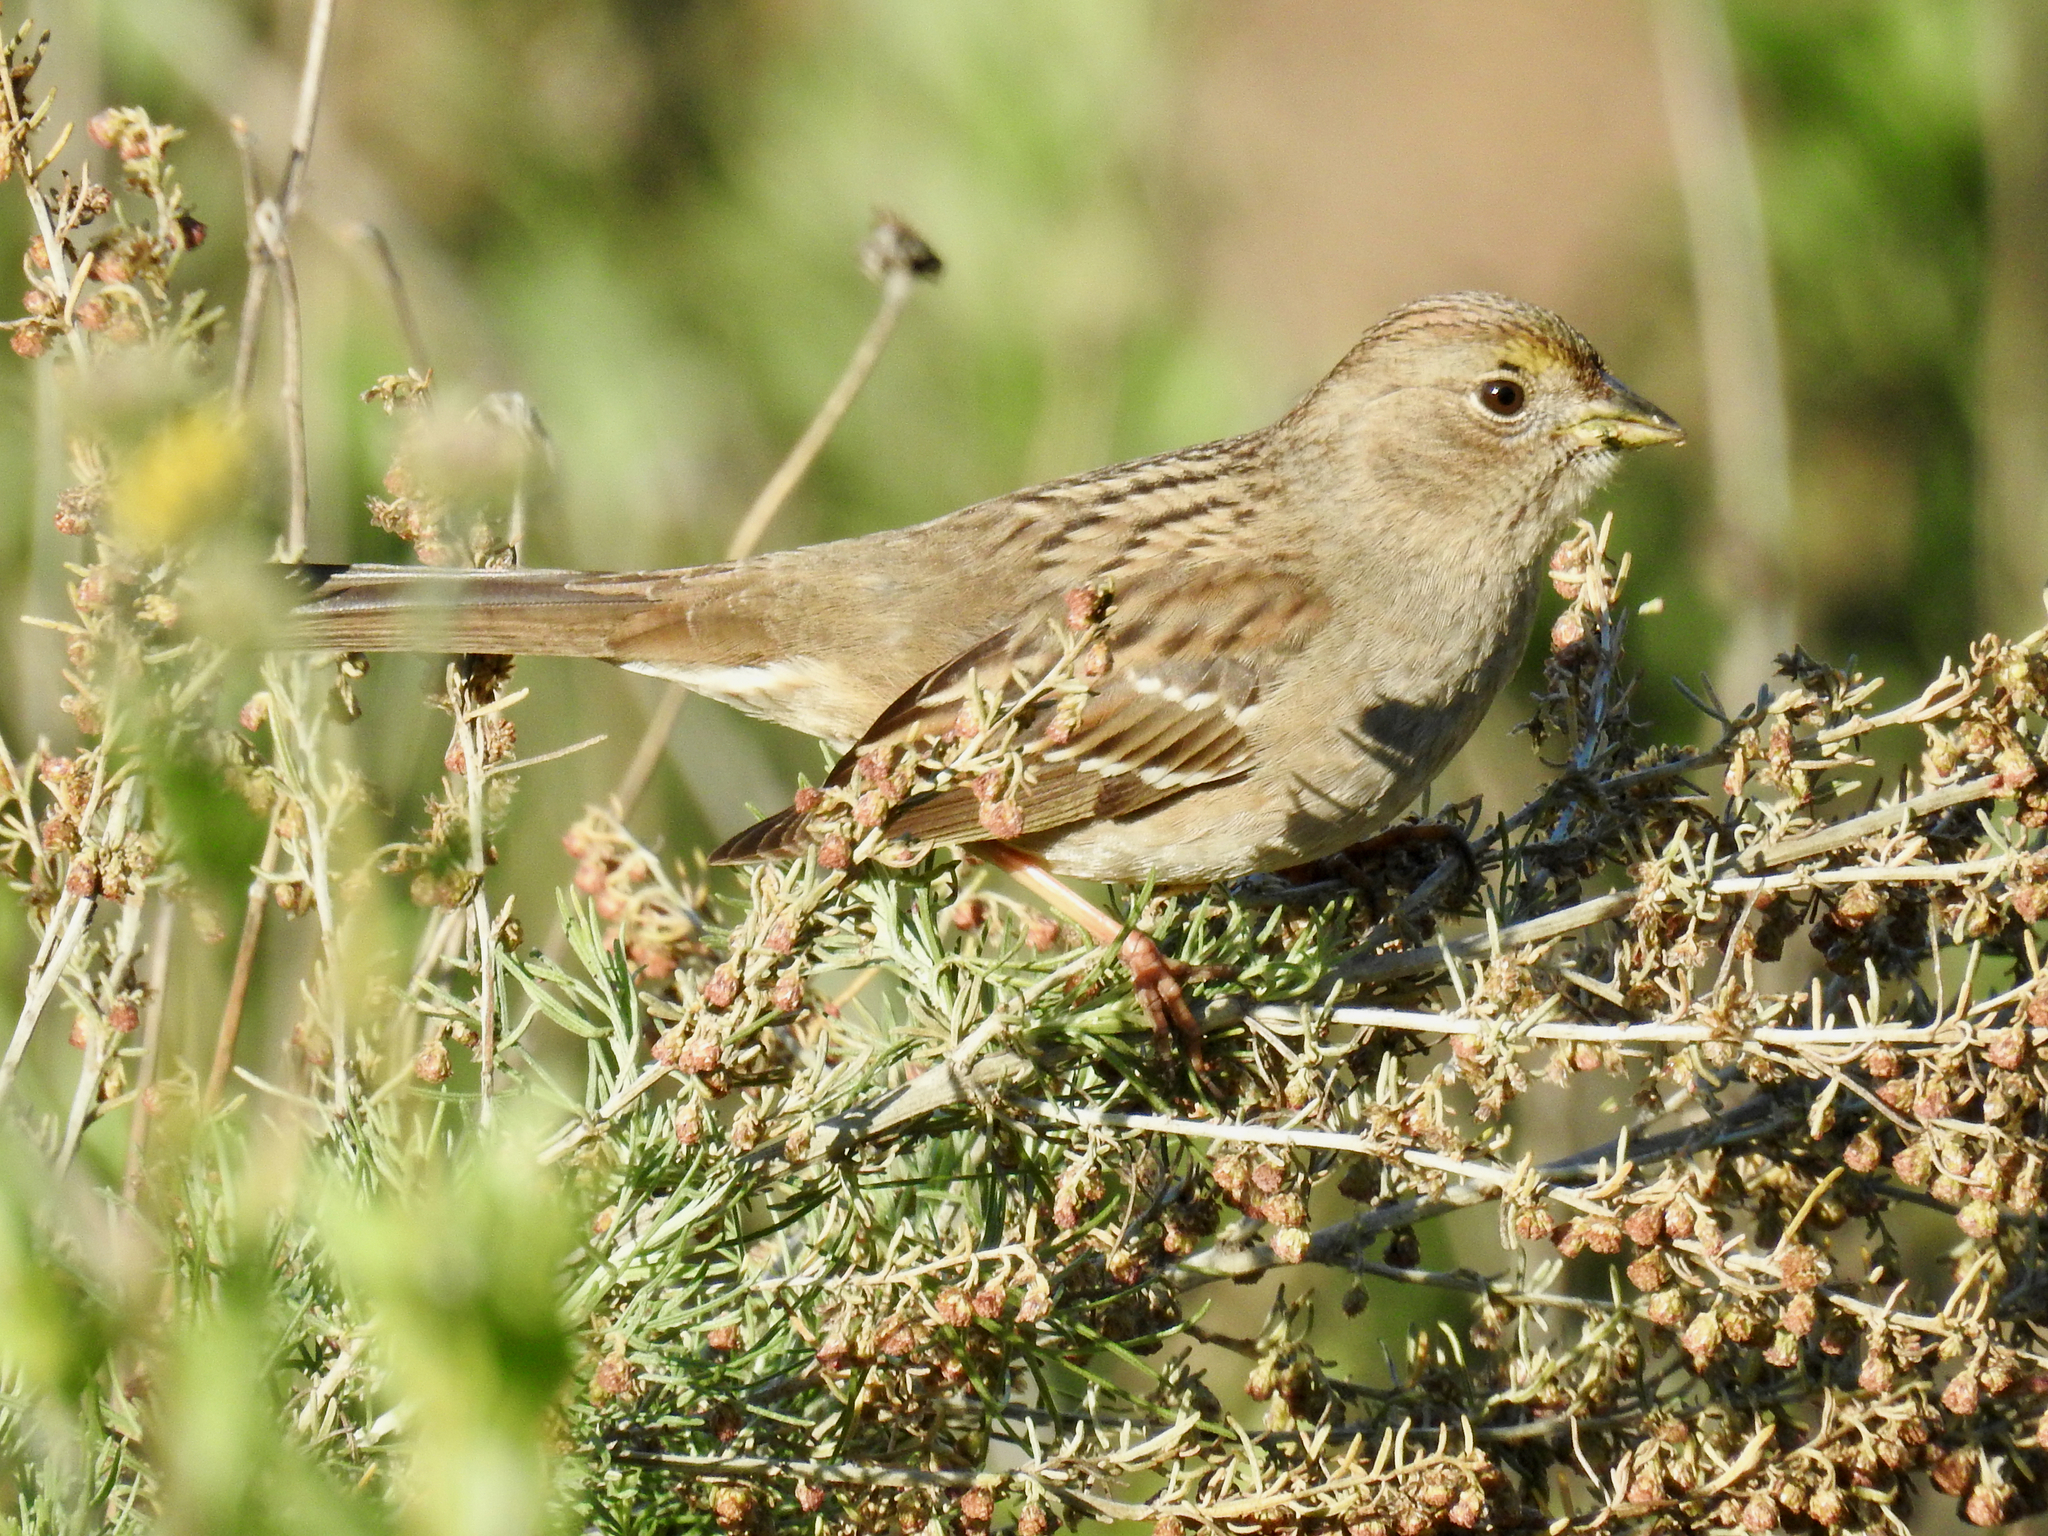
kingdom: Animalia
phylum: Chordata
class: Aves
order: Passeriformes
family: Passerellidae
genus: Zonotrichia
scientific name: Zonotrichia atricapilla
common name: Golden-crowned sparrow
